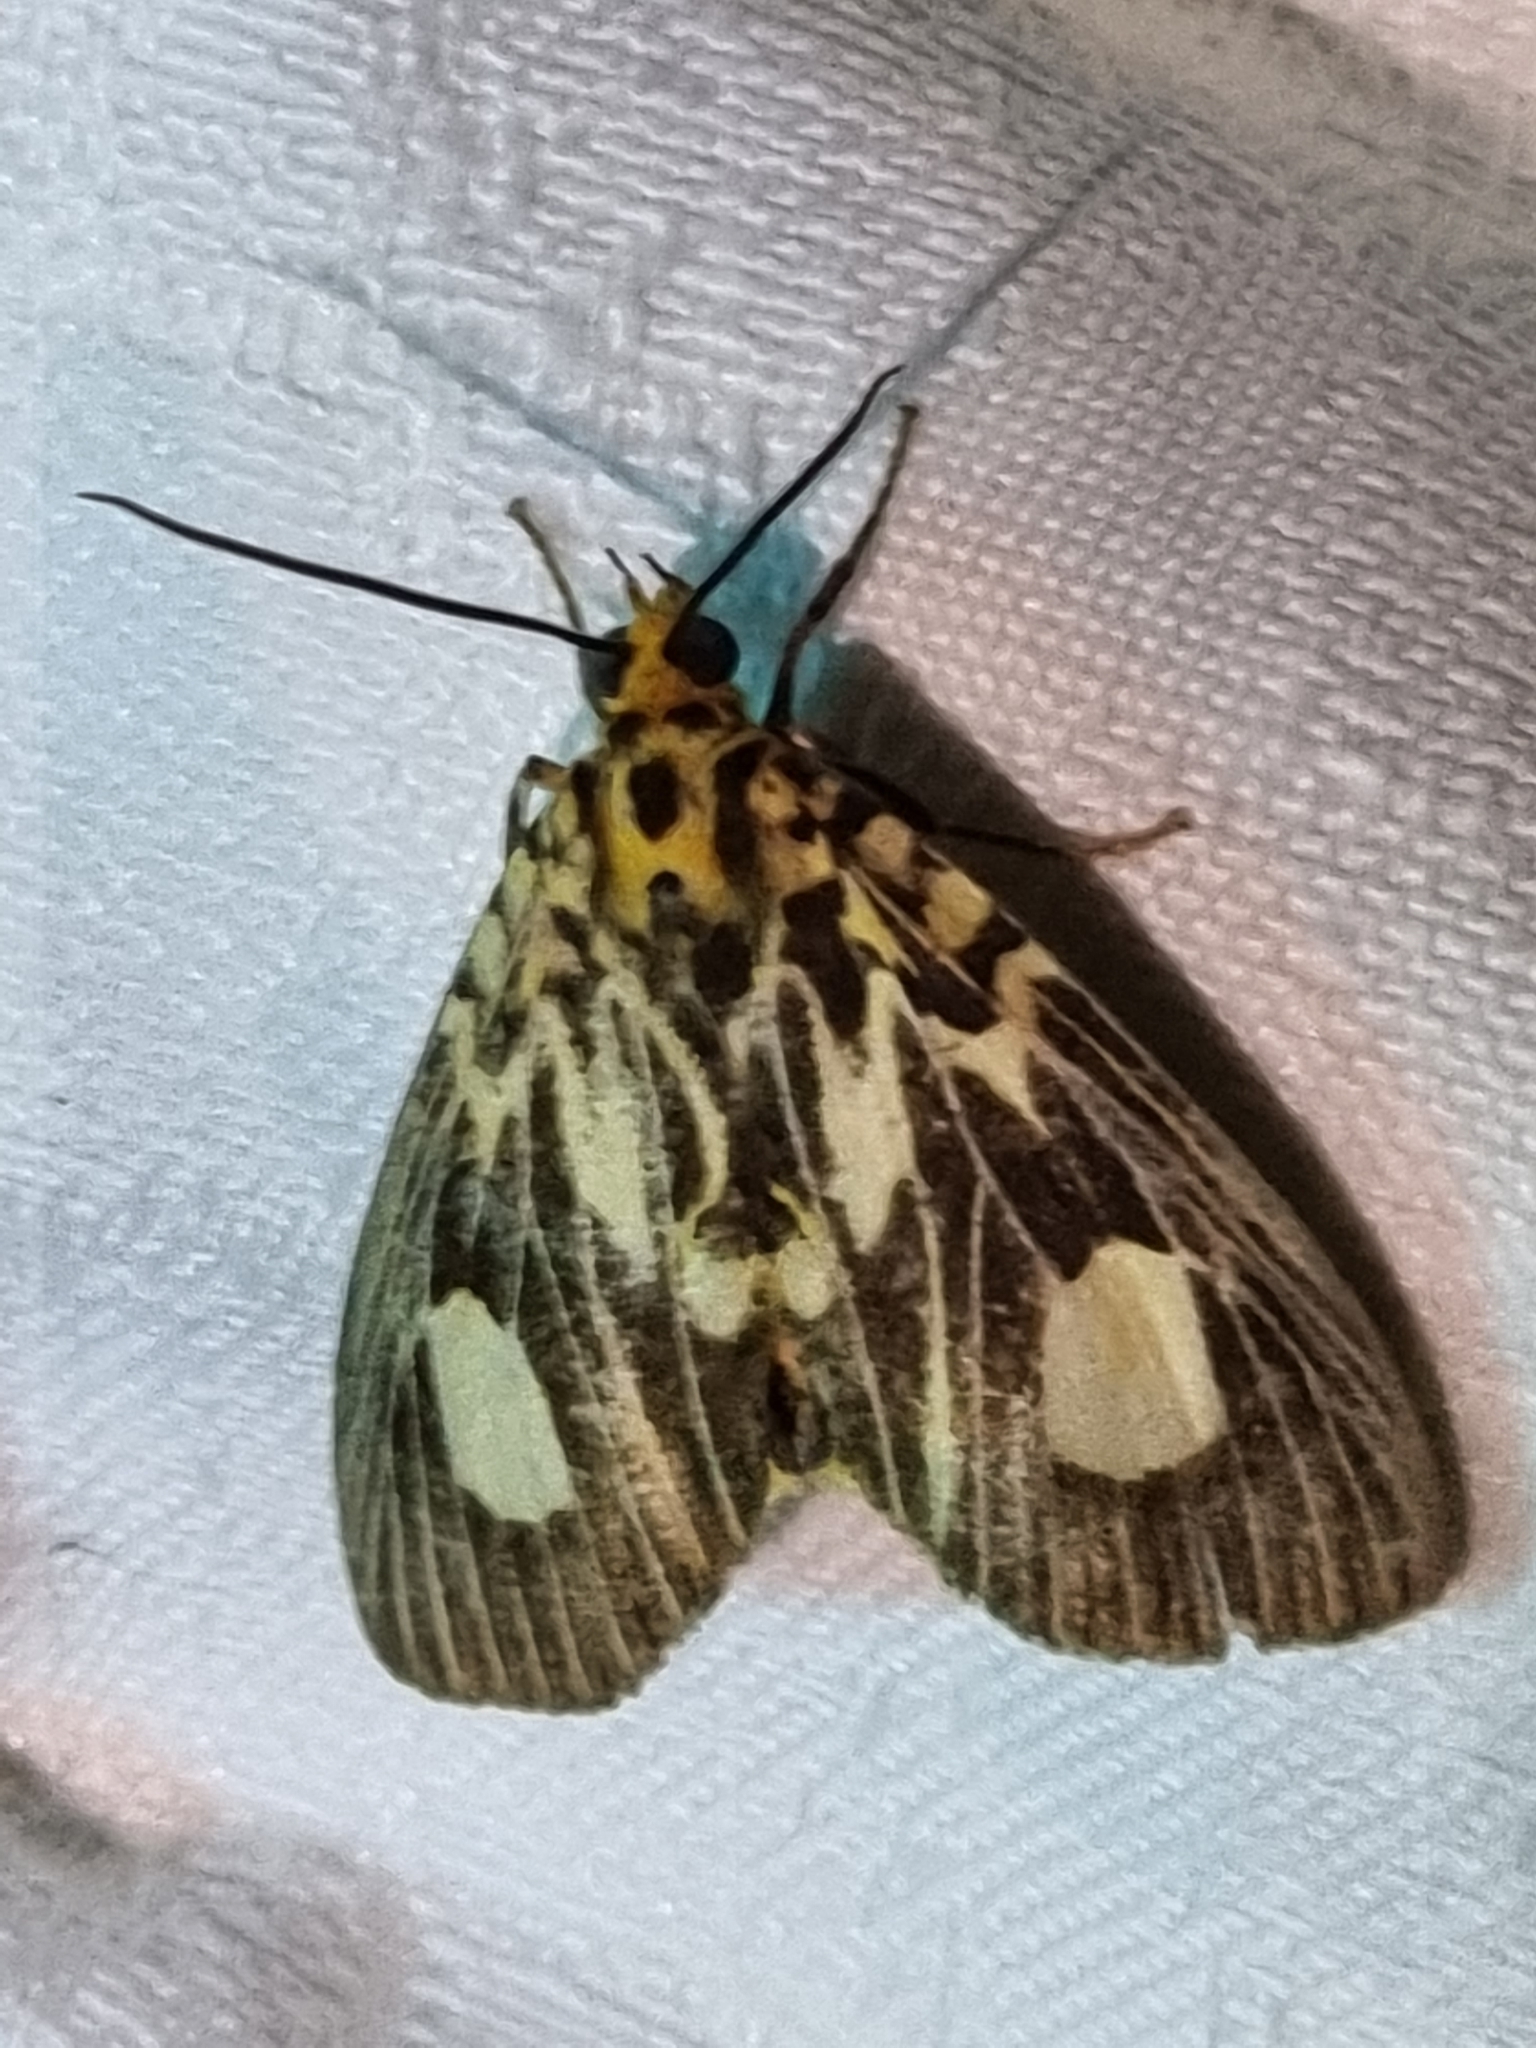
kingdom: Animalia
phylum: Arthropoda
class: Insecta
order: Lepidoptera
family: Erebidae
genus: Asota
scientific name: Asota plagiata
